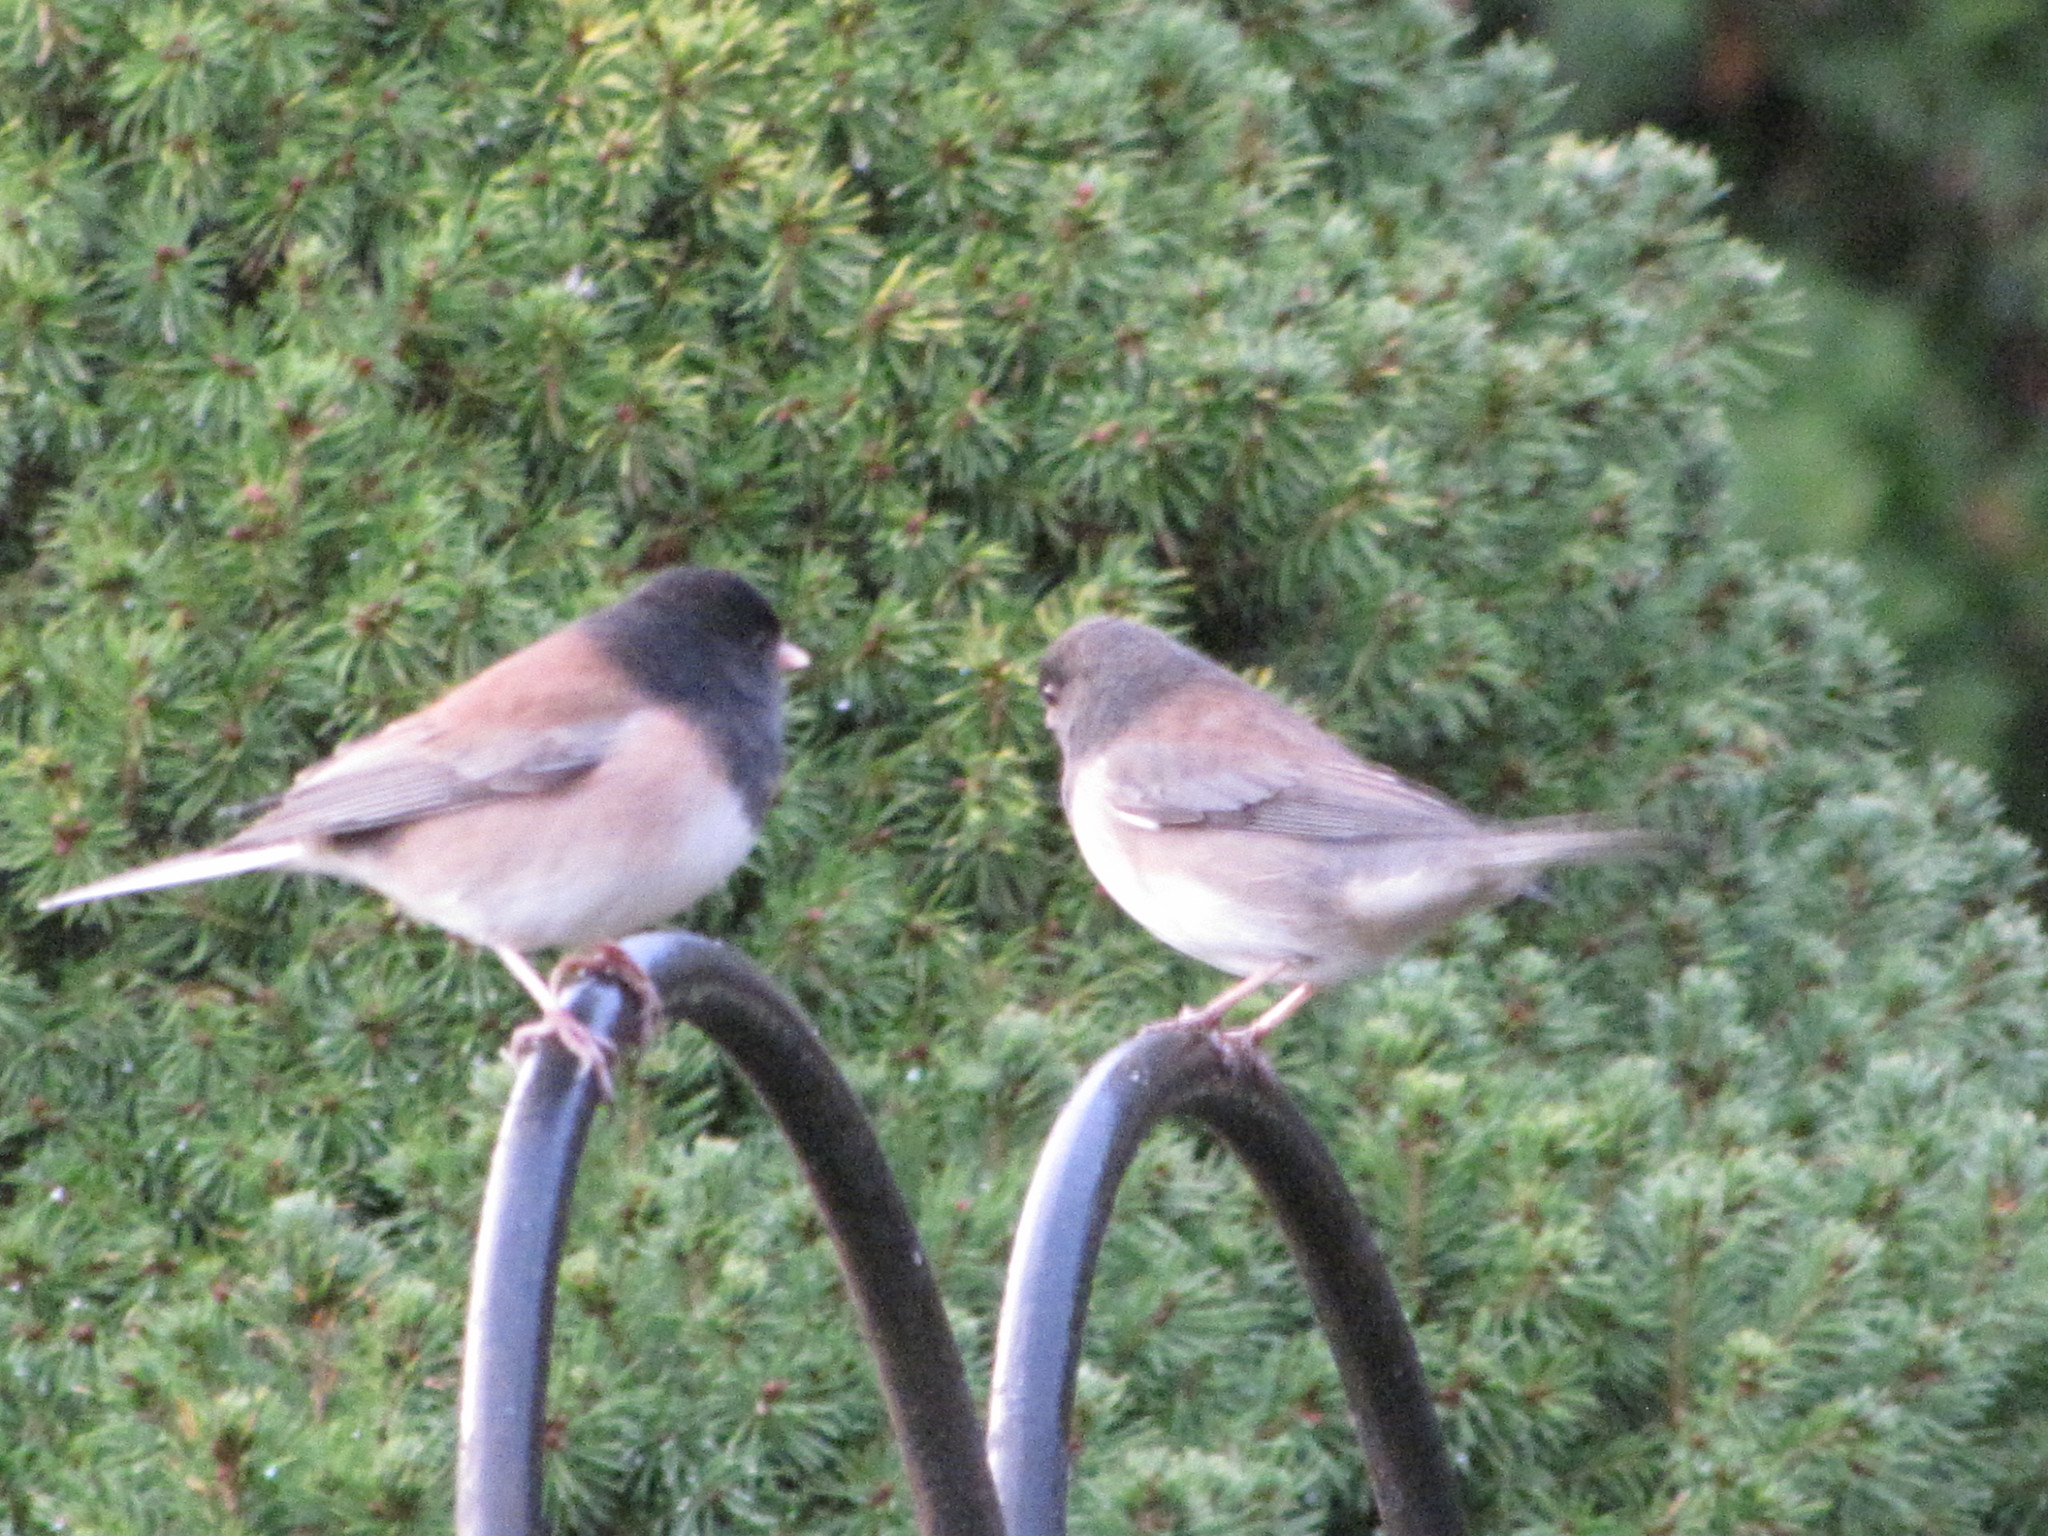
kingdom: Animalia
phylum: Chordata
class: Aves
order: Passeriformes
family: Passerellidae
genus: Junco
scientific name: Junco hyemalis
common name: Dark-eyed junco
